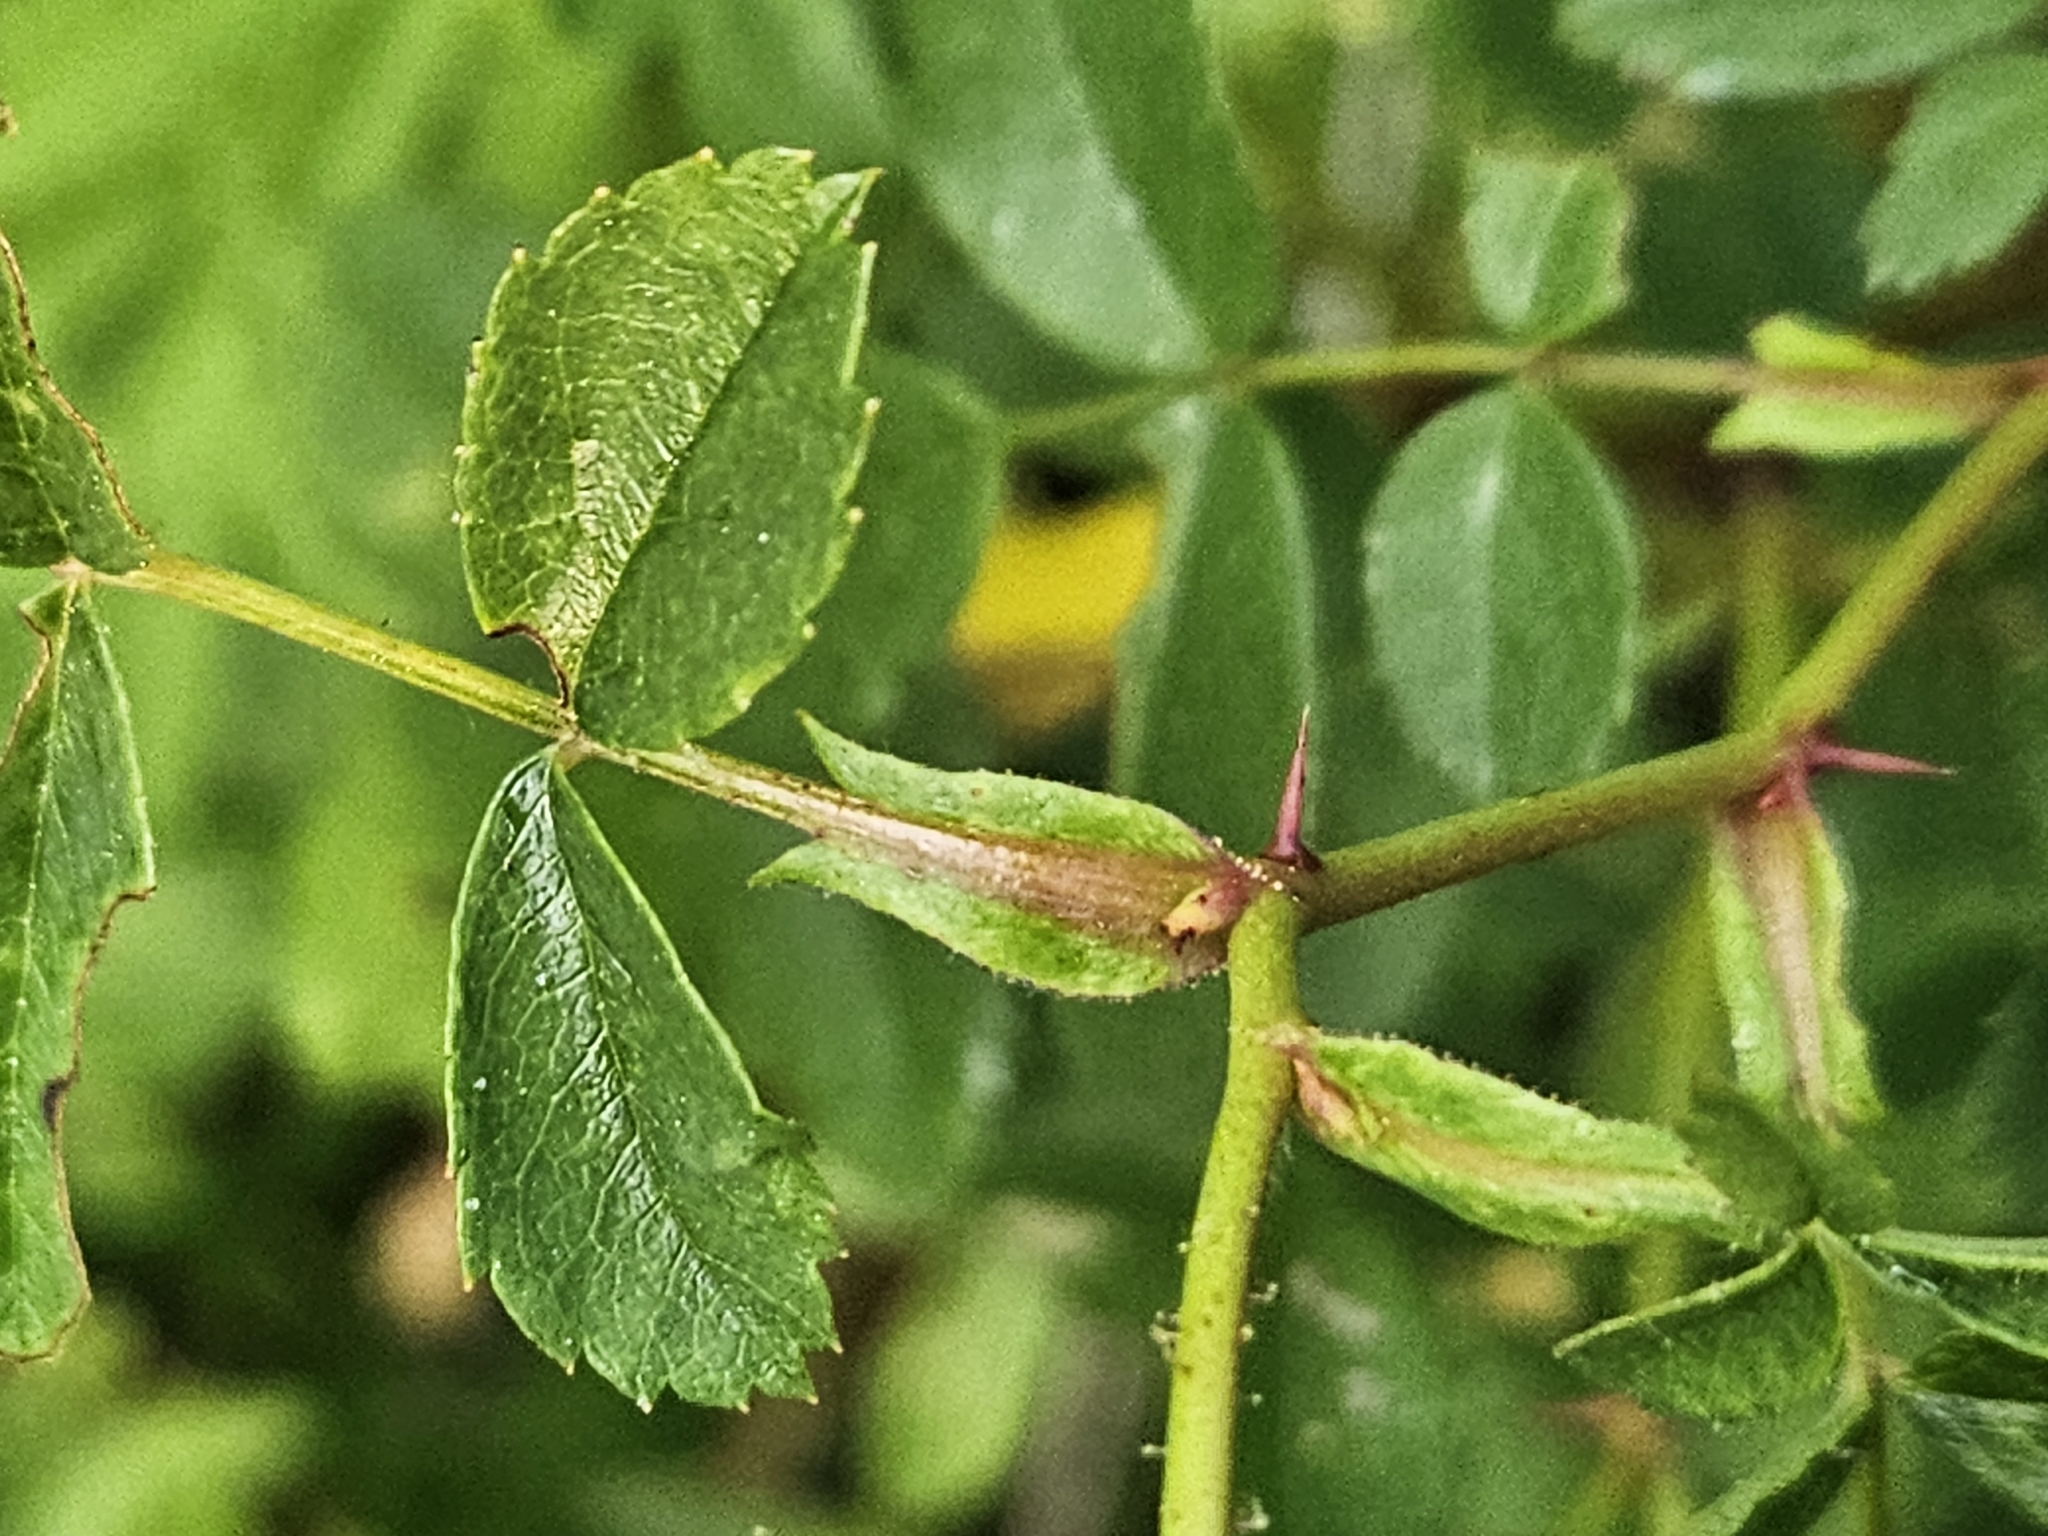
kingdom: Plantae
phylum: Tracheophyta
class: Magnoliopsida
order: Rosales
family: Rosaceae
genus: Rosa
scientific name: Rosa carolina
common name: Pasture rose
